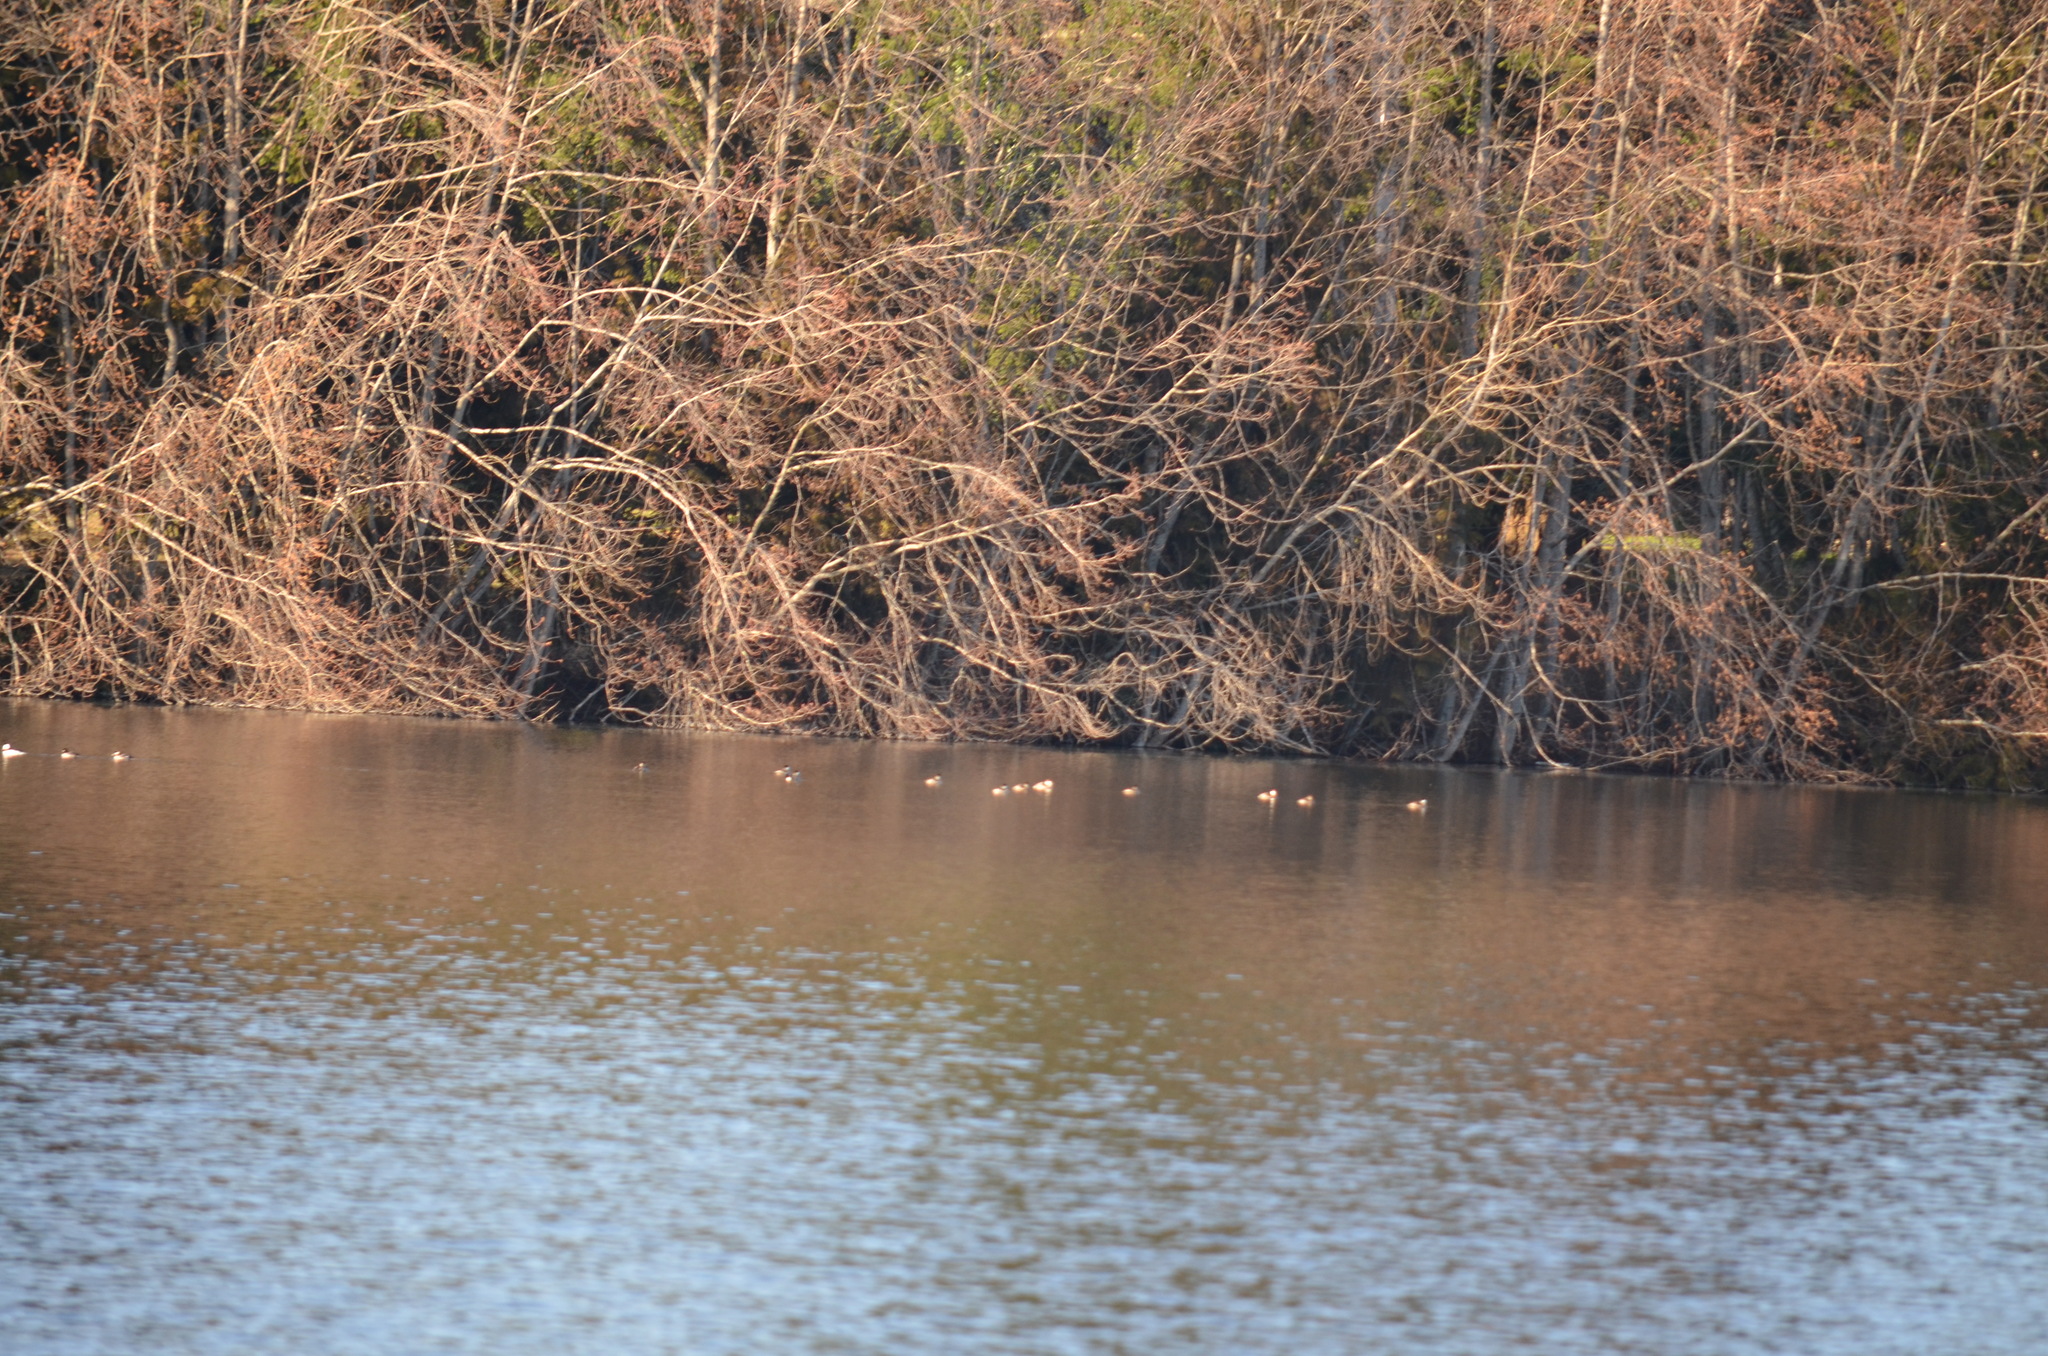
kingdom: Animalia
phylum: Chordata
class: Aves
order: Anseriformes
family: Anatidae
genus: Oxyura
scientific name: Oxyura jamaicensis
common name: Ruddy duck
